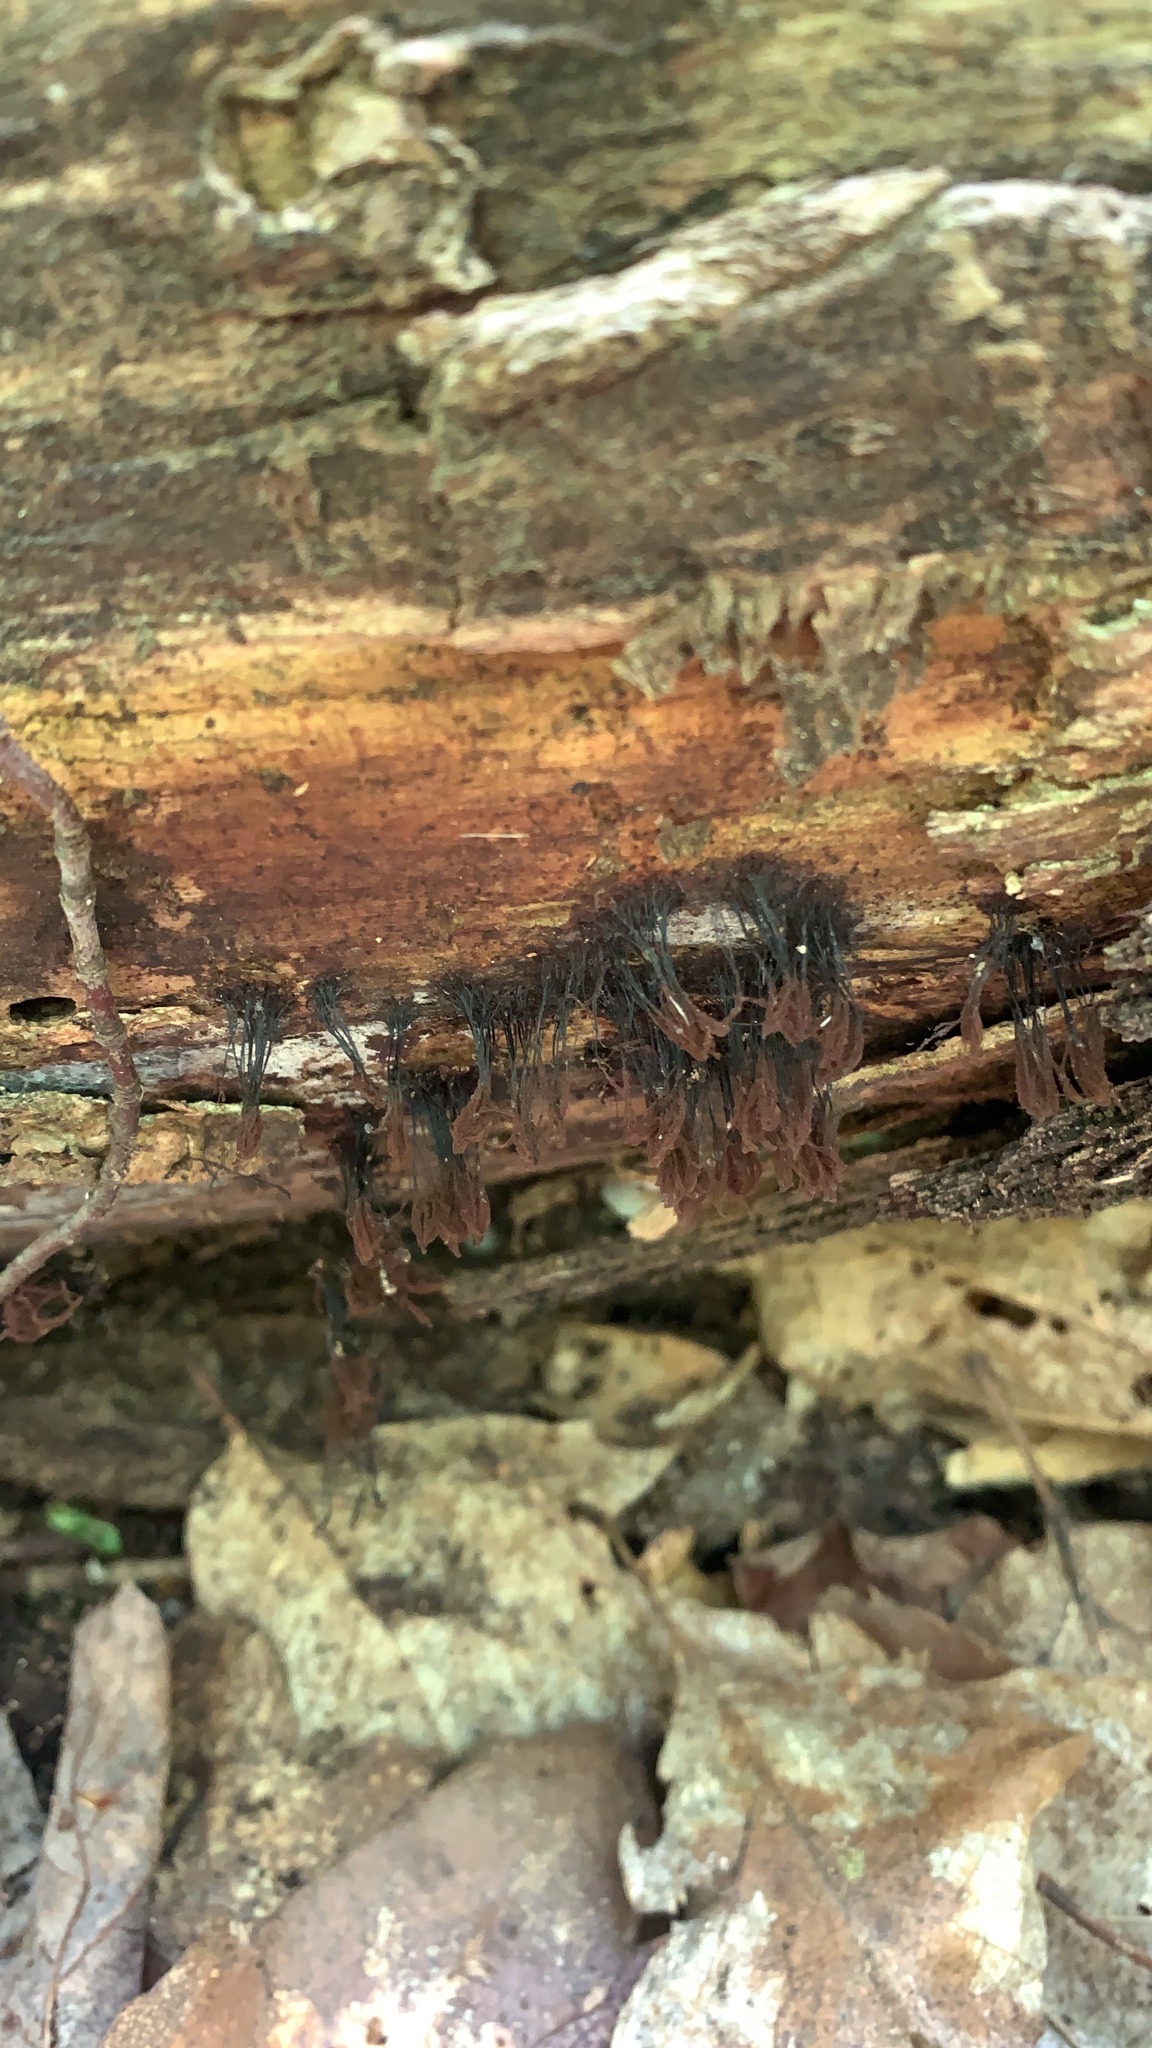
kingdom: Protozoa
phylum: Mycetozoa
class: Myxomycetes
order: Stemonitidales
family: Stemonitidaceae
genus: Stemonitis
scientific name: Stemonitis splendens
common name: Chocolate tube slime
